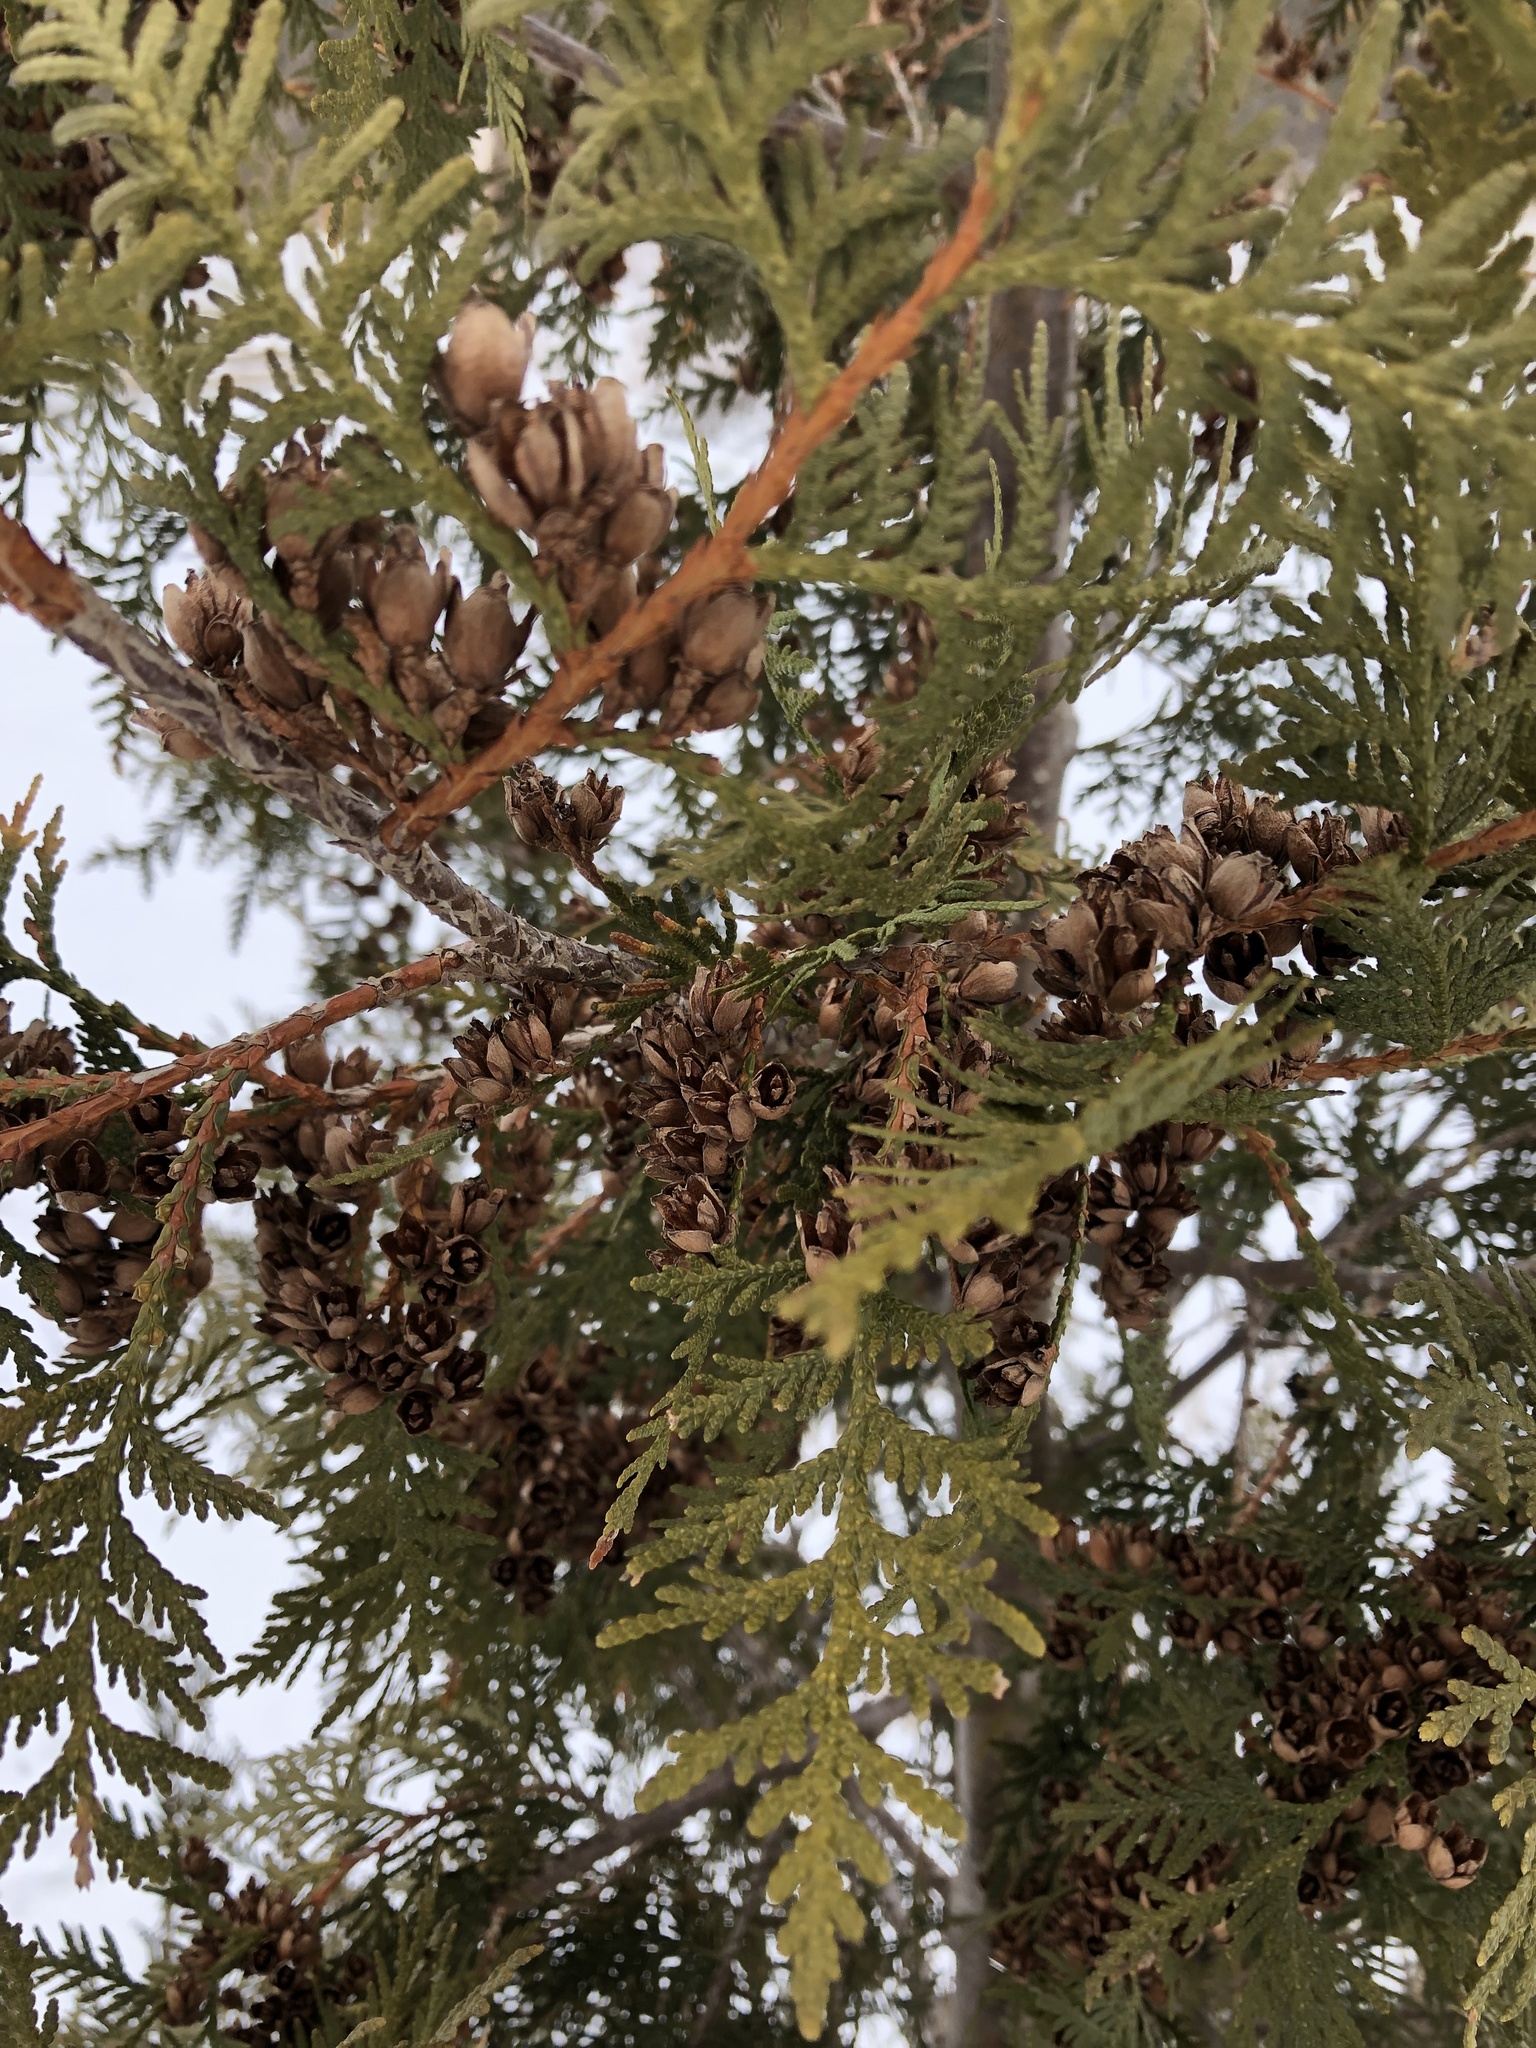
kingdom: Plantae
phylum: Tracheophyta
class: Pinopsida
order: Pinales
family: Cupressaceae
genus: Thuja
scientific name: Thuja occidentalis
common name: Northern white-cedar
